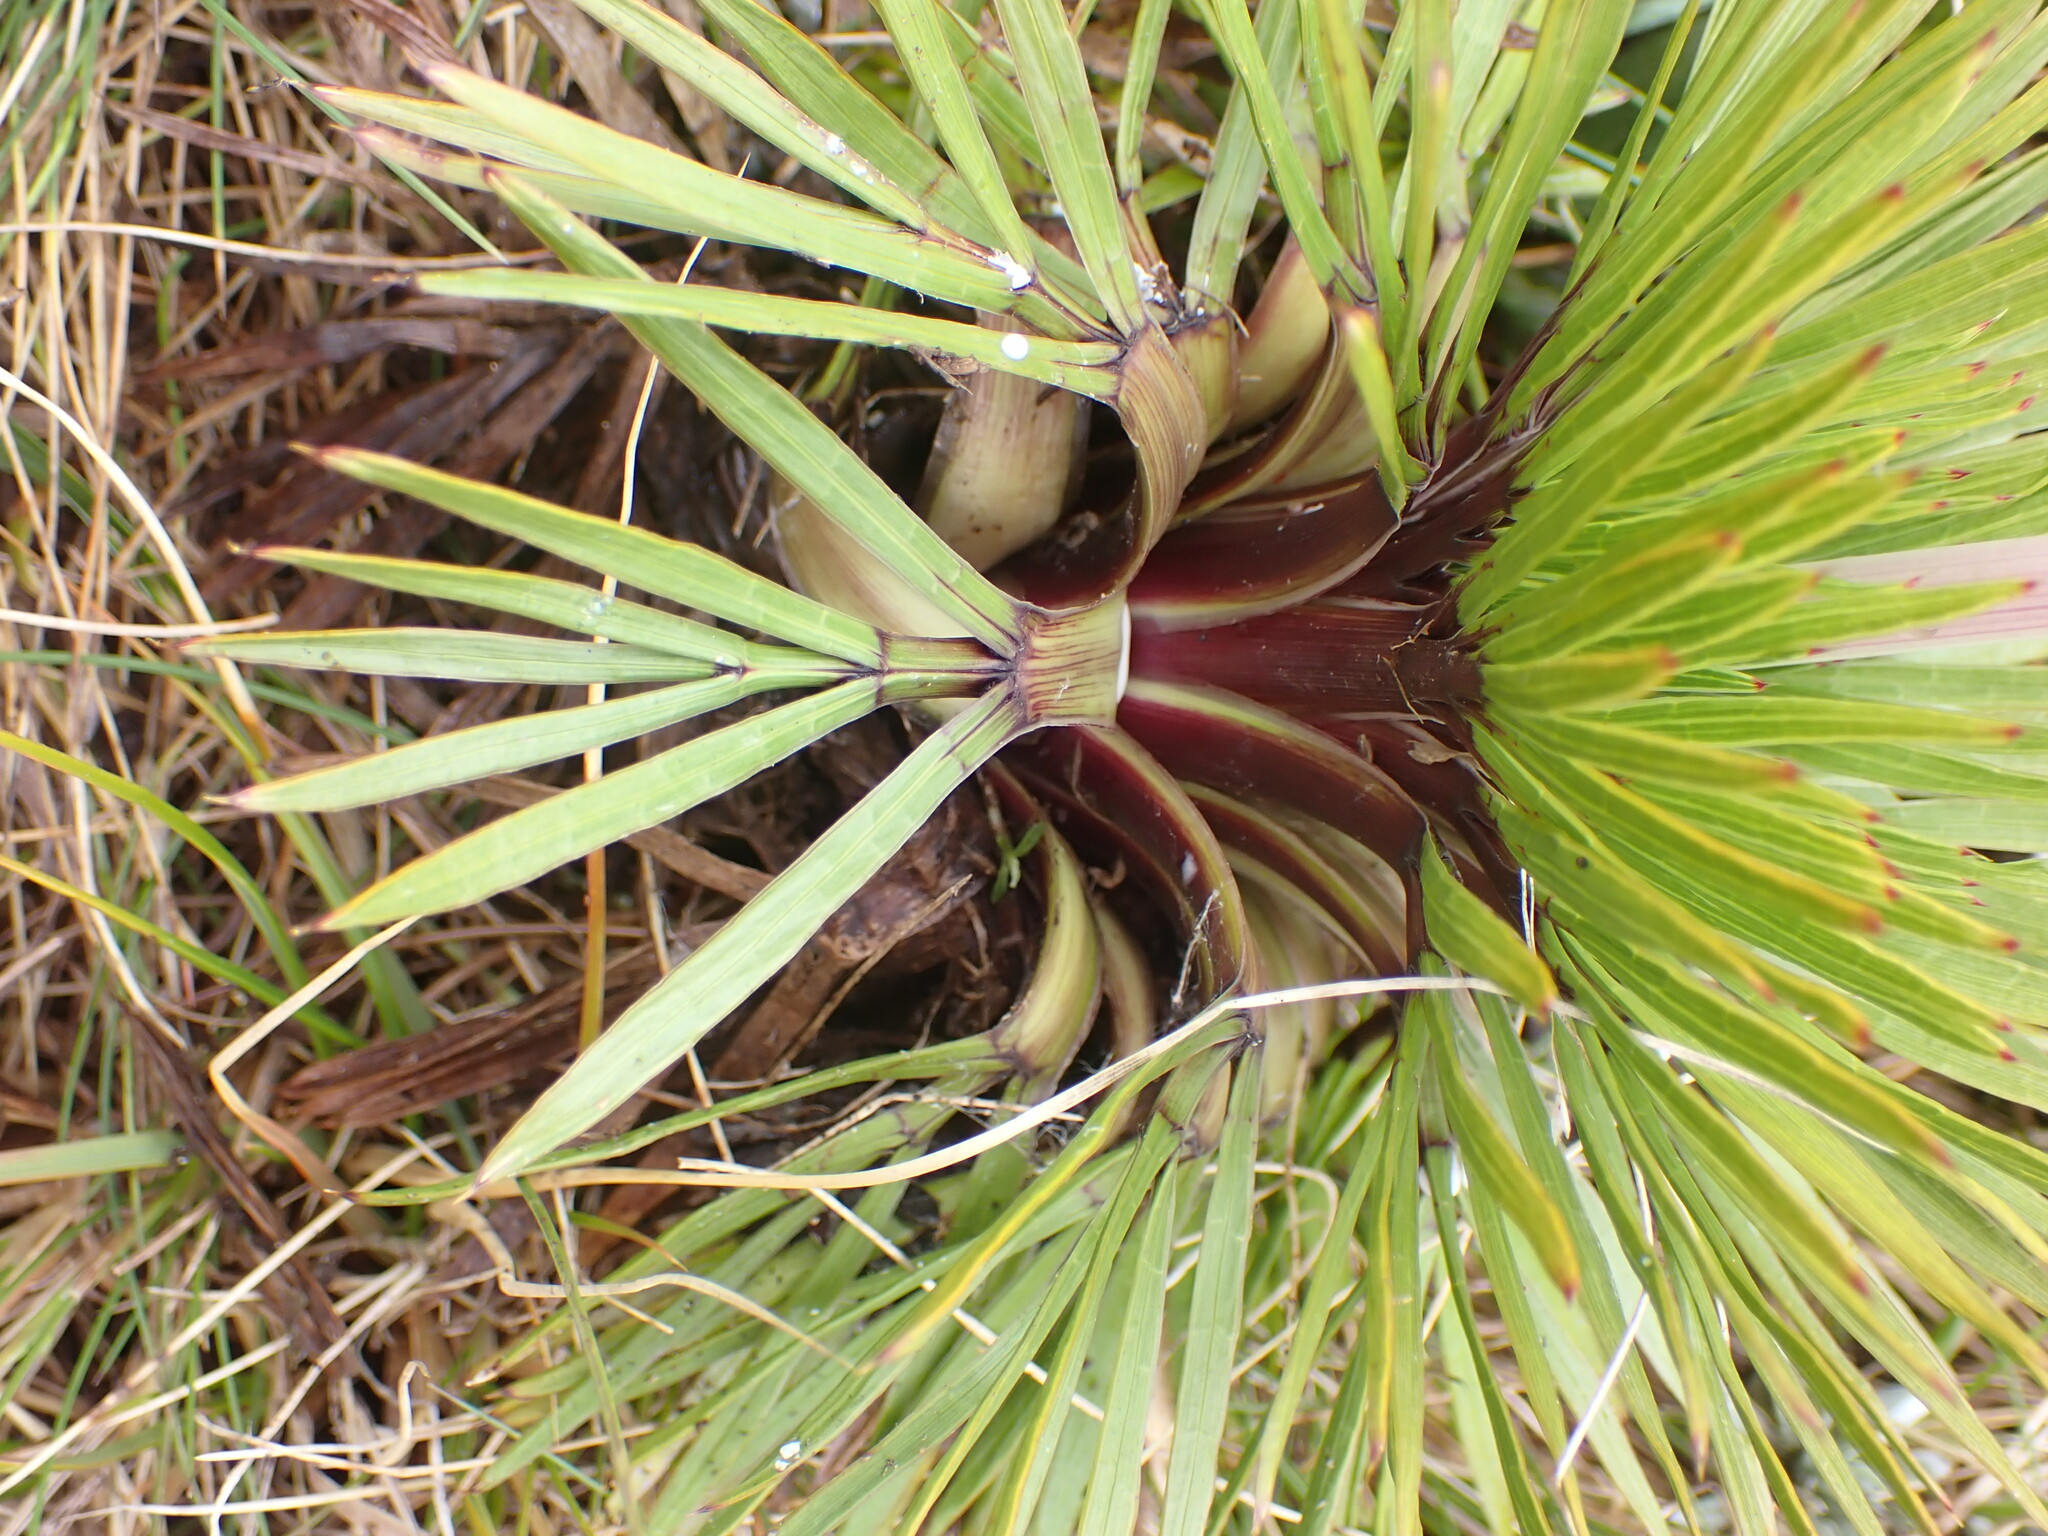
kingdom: Plantae
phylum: Tracheophyta
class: Magnoliopsida
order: Apiales
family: Apiaceae
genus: Aciphylla
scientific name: Aciphylla congesta
